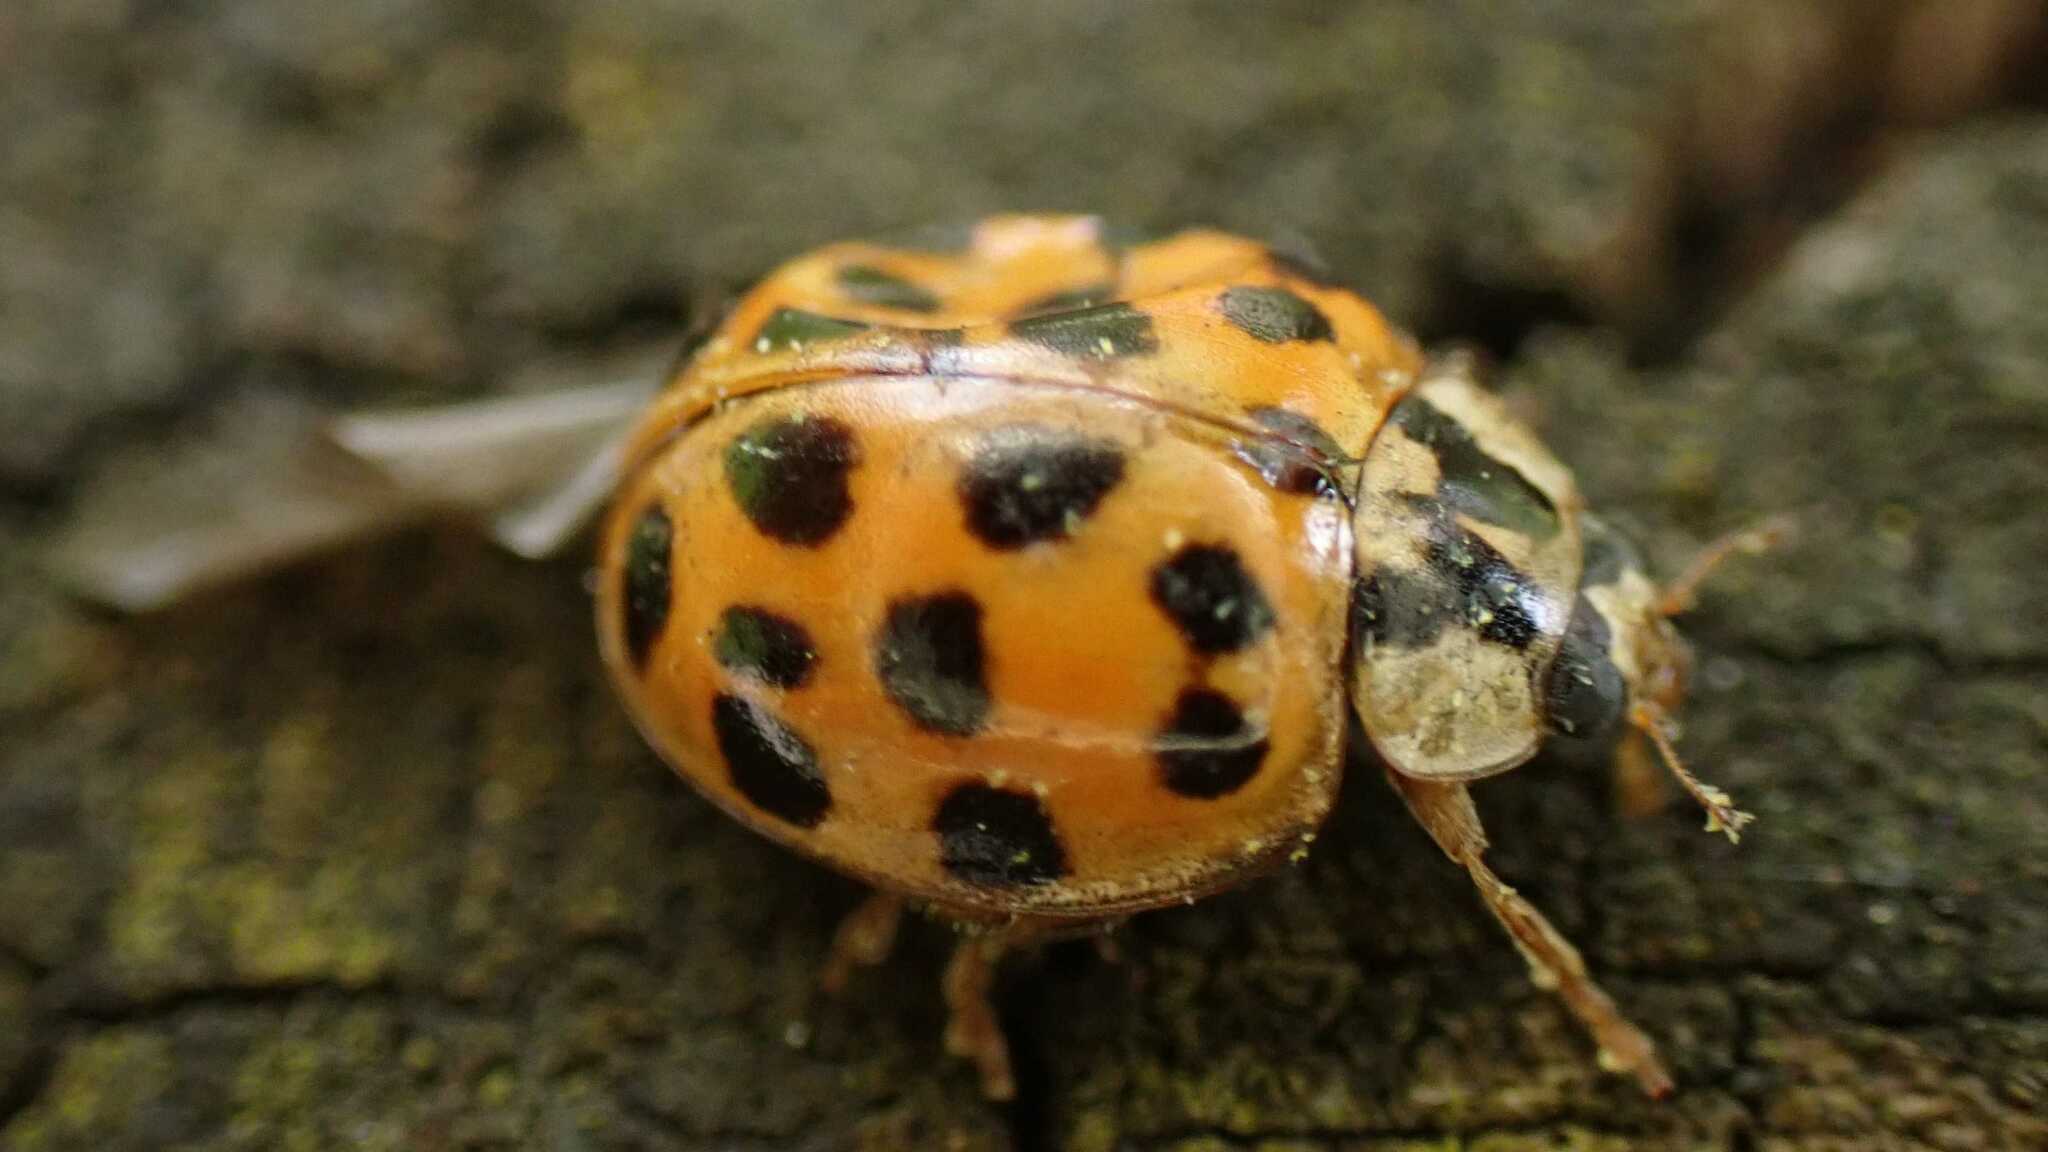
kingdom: Animalia
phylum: Arthropoda
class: Insecta
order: Coleoptera
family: Coccinellidae
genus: Harmonia
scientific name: Harmonia axyridis
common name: Harlequin ladybird
